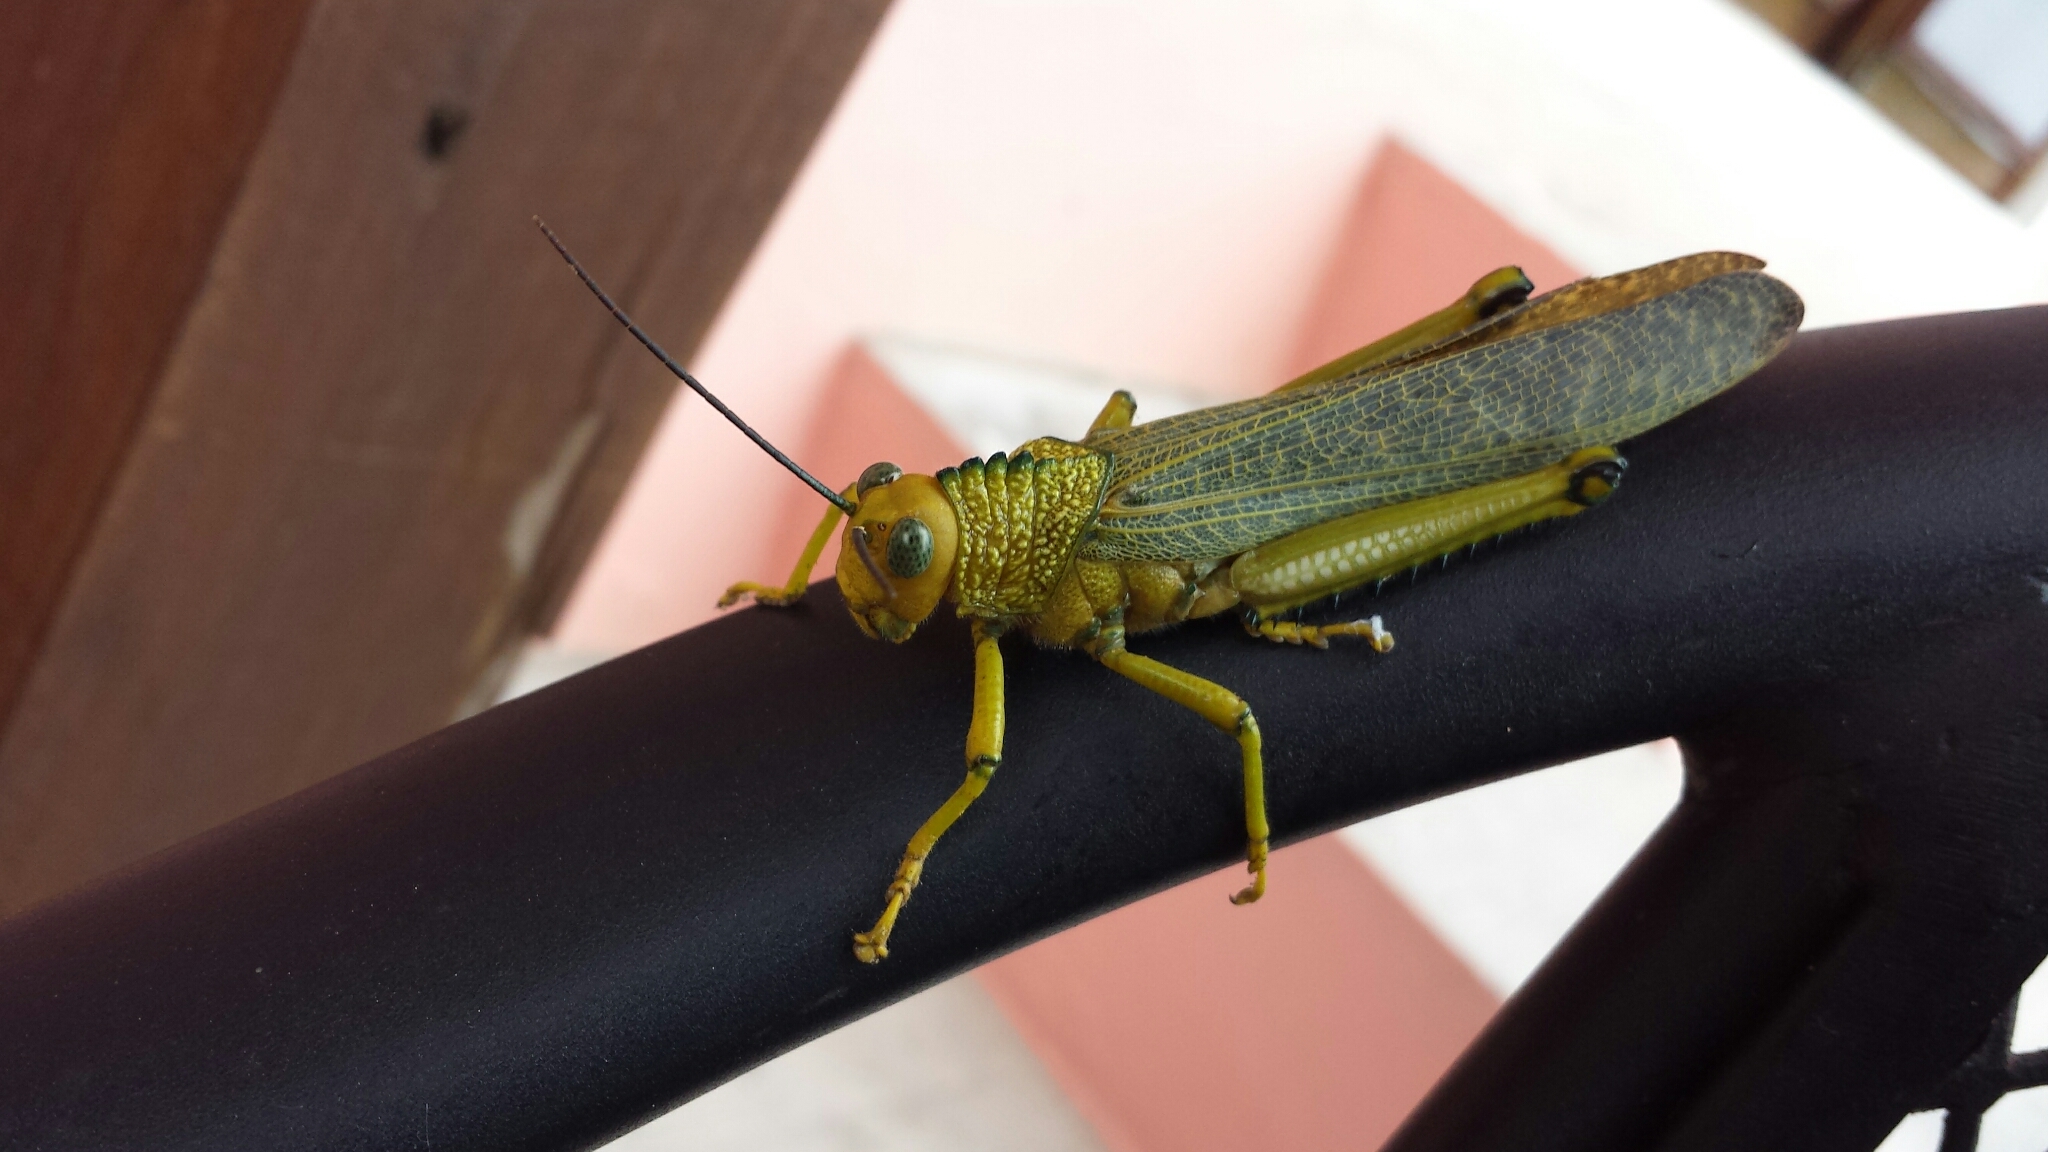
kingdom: Animalia
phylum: Arthropoda
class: Insecta
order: Orthoptera
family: Romaleidae
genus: Tropidacris
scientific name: Tropidacris cristata
